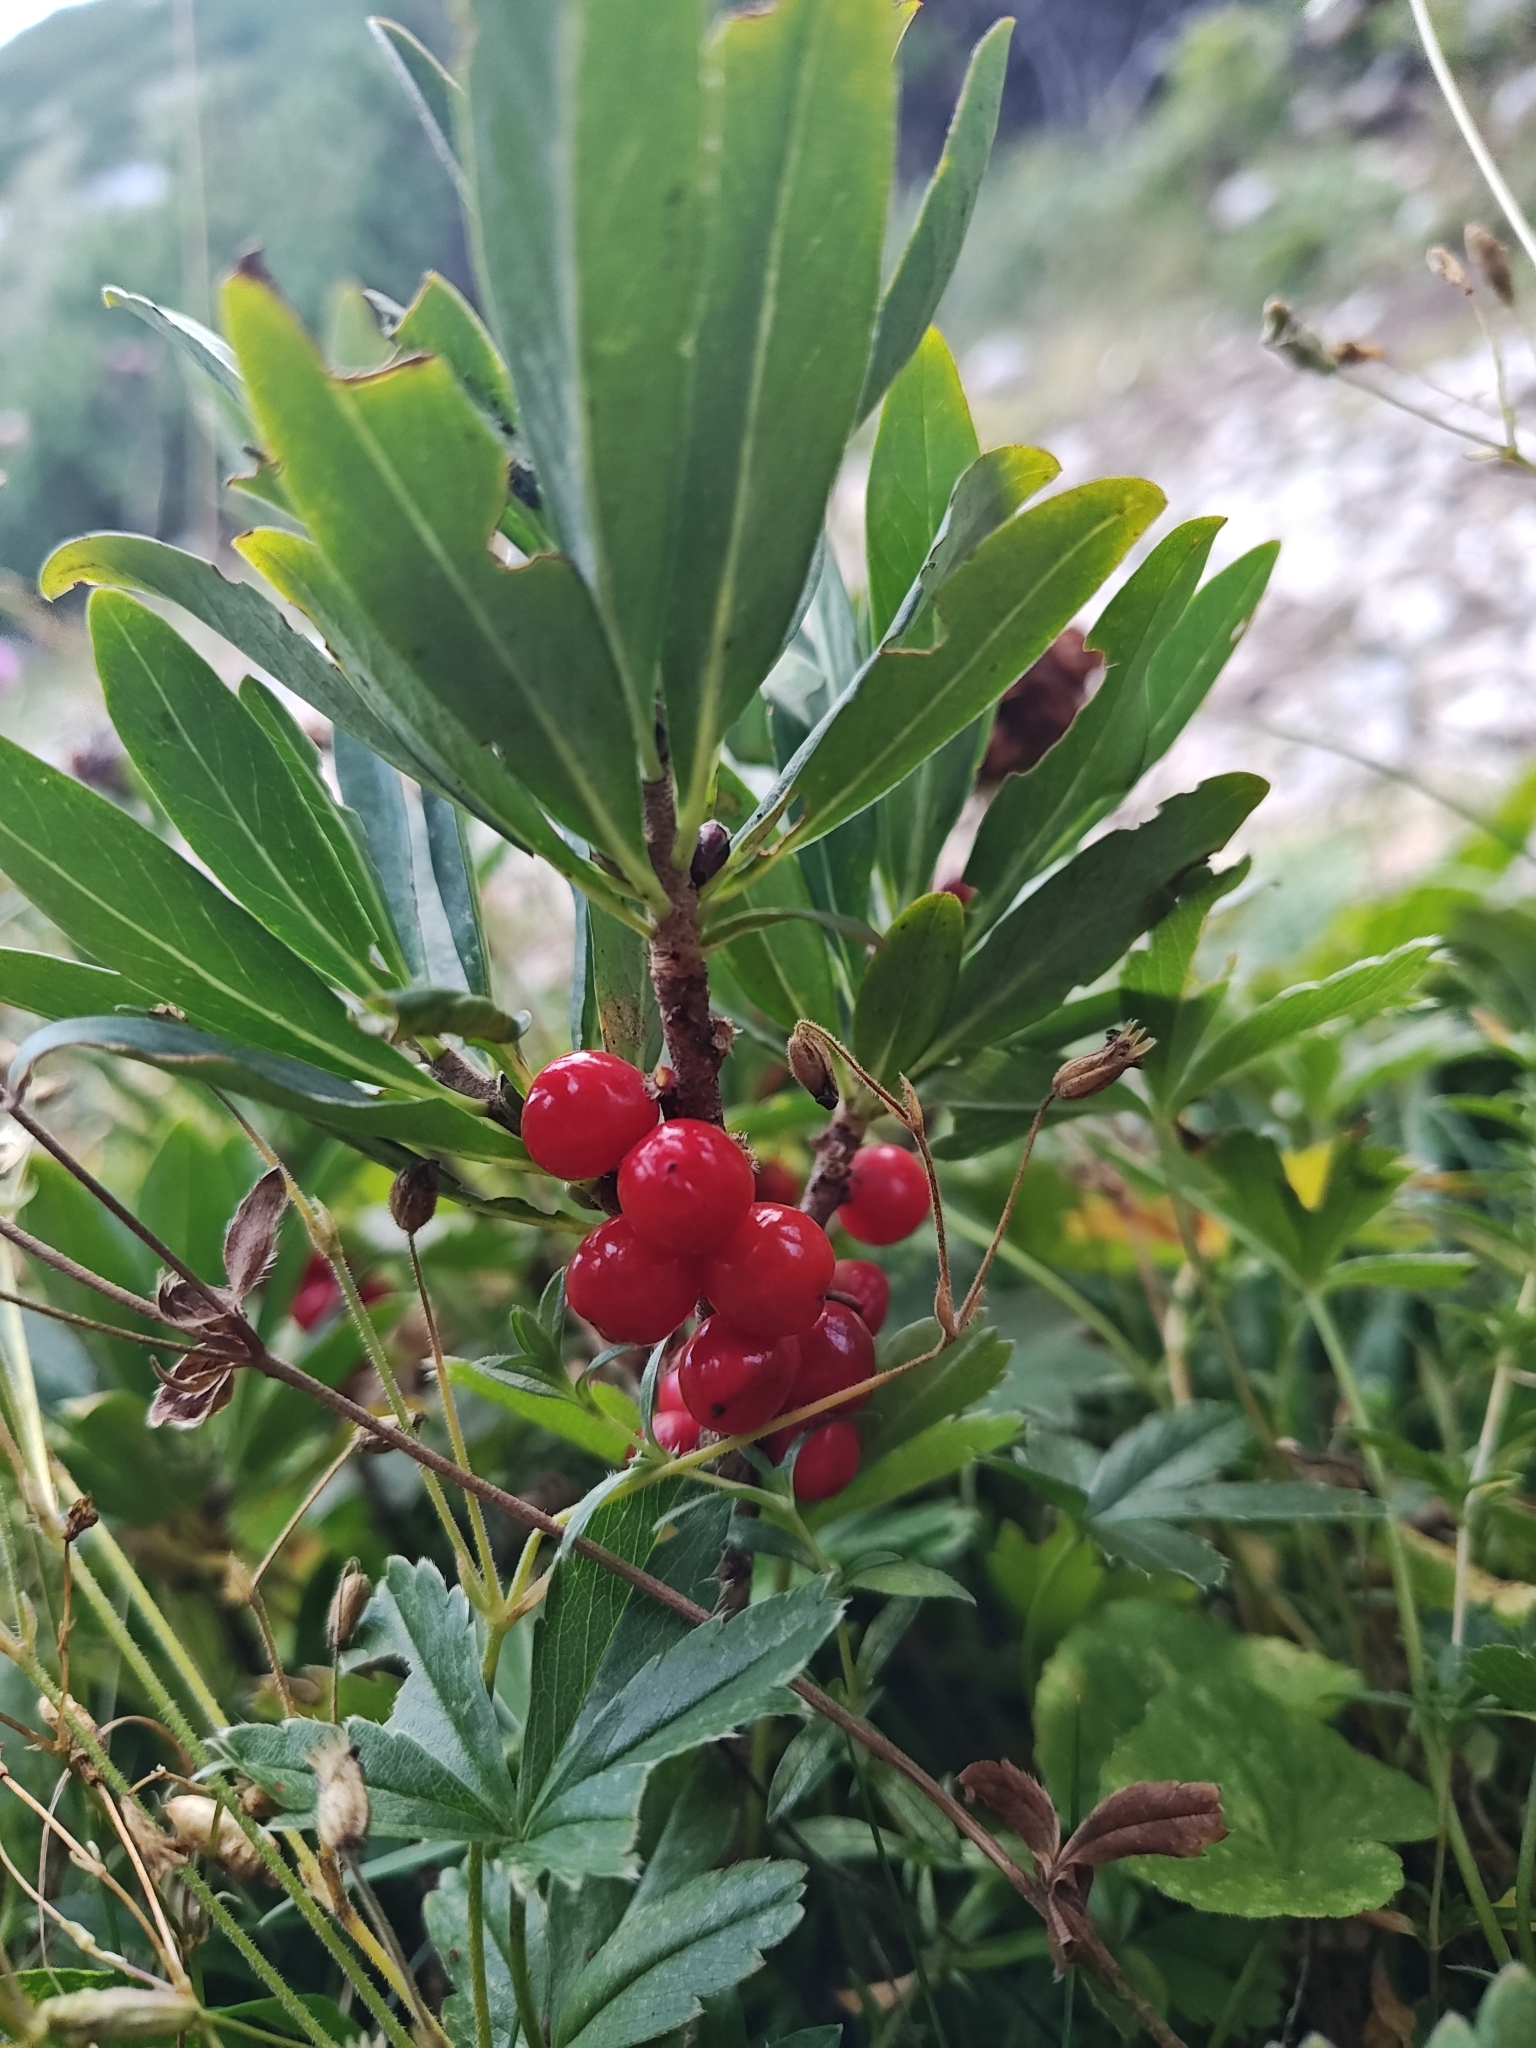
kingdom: Plantae
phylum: Tracheophyta
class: Magnoliopsida
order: Malvales
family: Thymelaeaceae
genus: Daphne
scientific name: Daphne mezereum
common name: Mezereon
